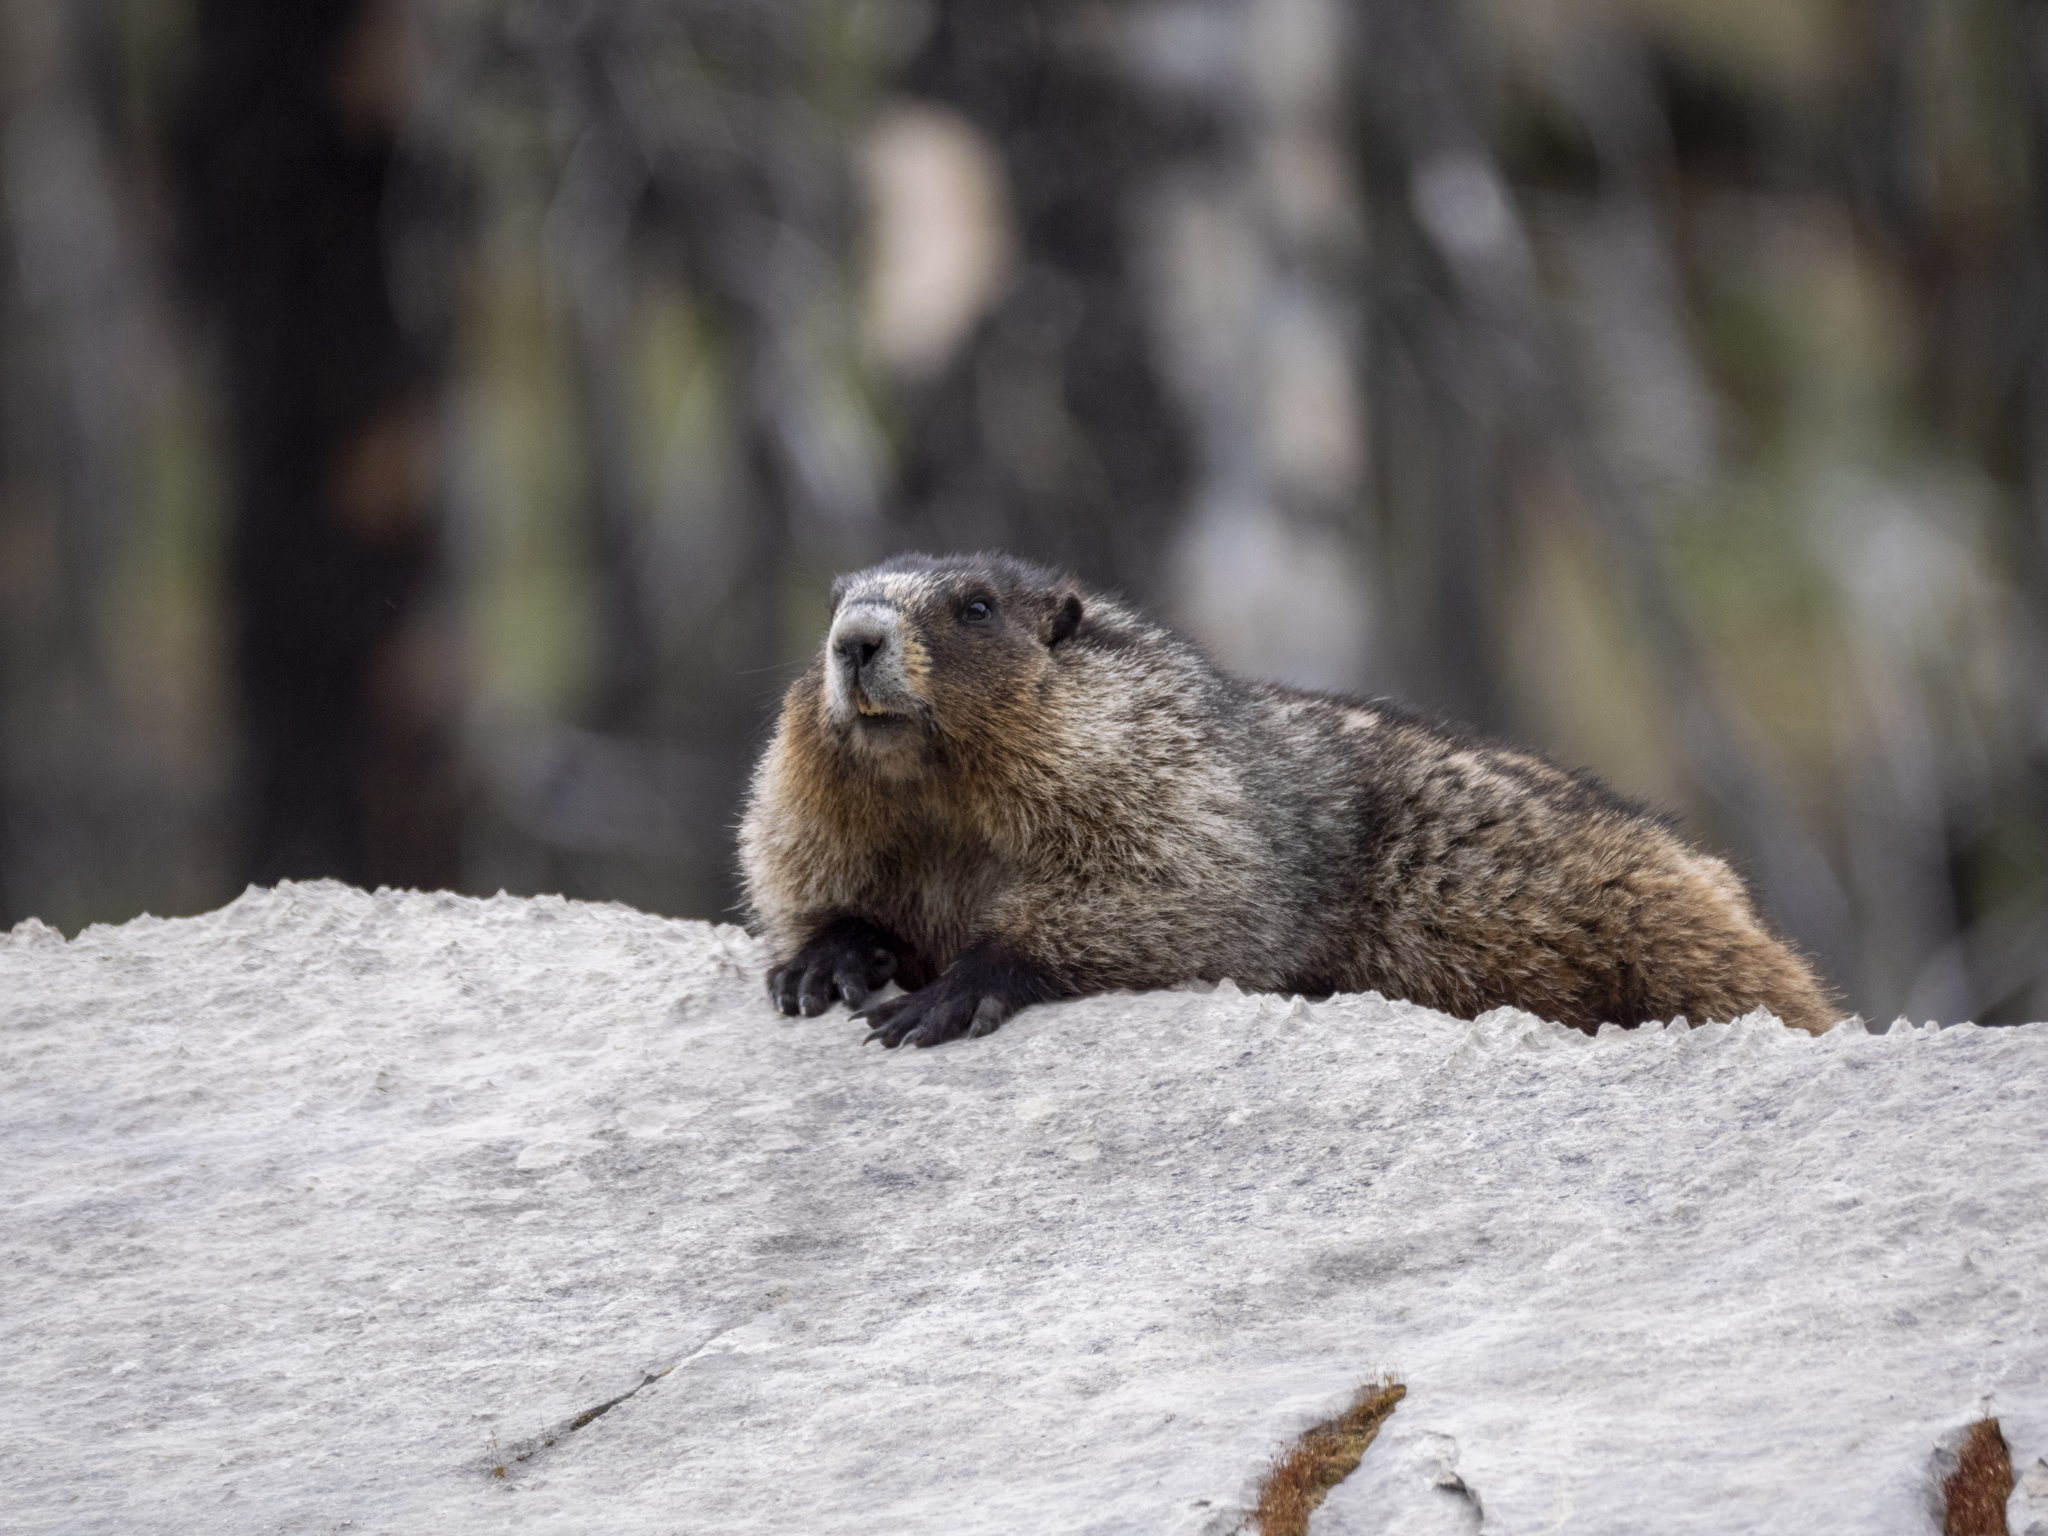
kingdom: Animalia
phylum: Chordata
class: Mammalia
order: Rodentia
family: Sciuridae
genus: Marmota
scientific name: Marmota caligata
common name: Hoary marmot
